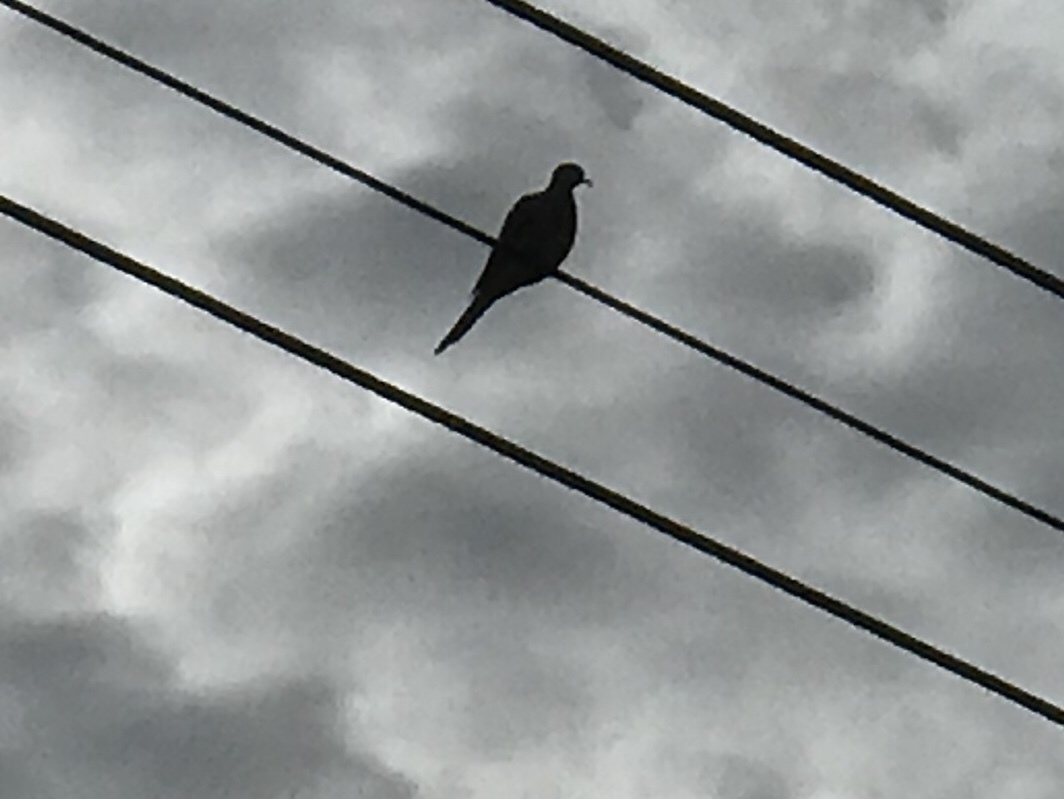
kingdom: Animalia
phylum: Chordata
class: Aves
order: Columbiformes
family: Columbidae
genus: Zenaida
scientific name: Zenaida macroura
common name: Mourning dove
